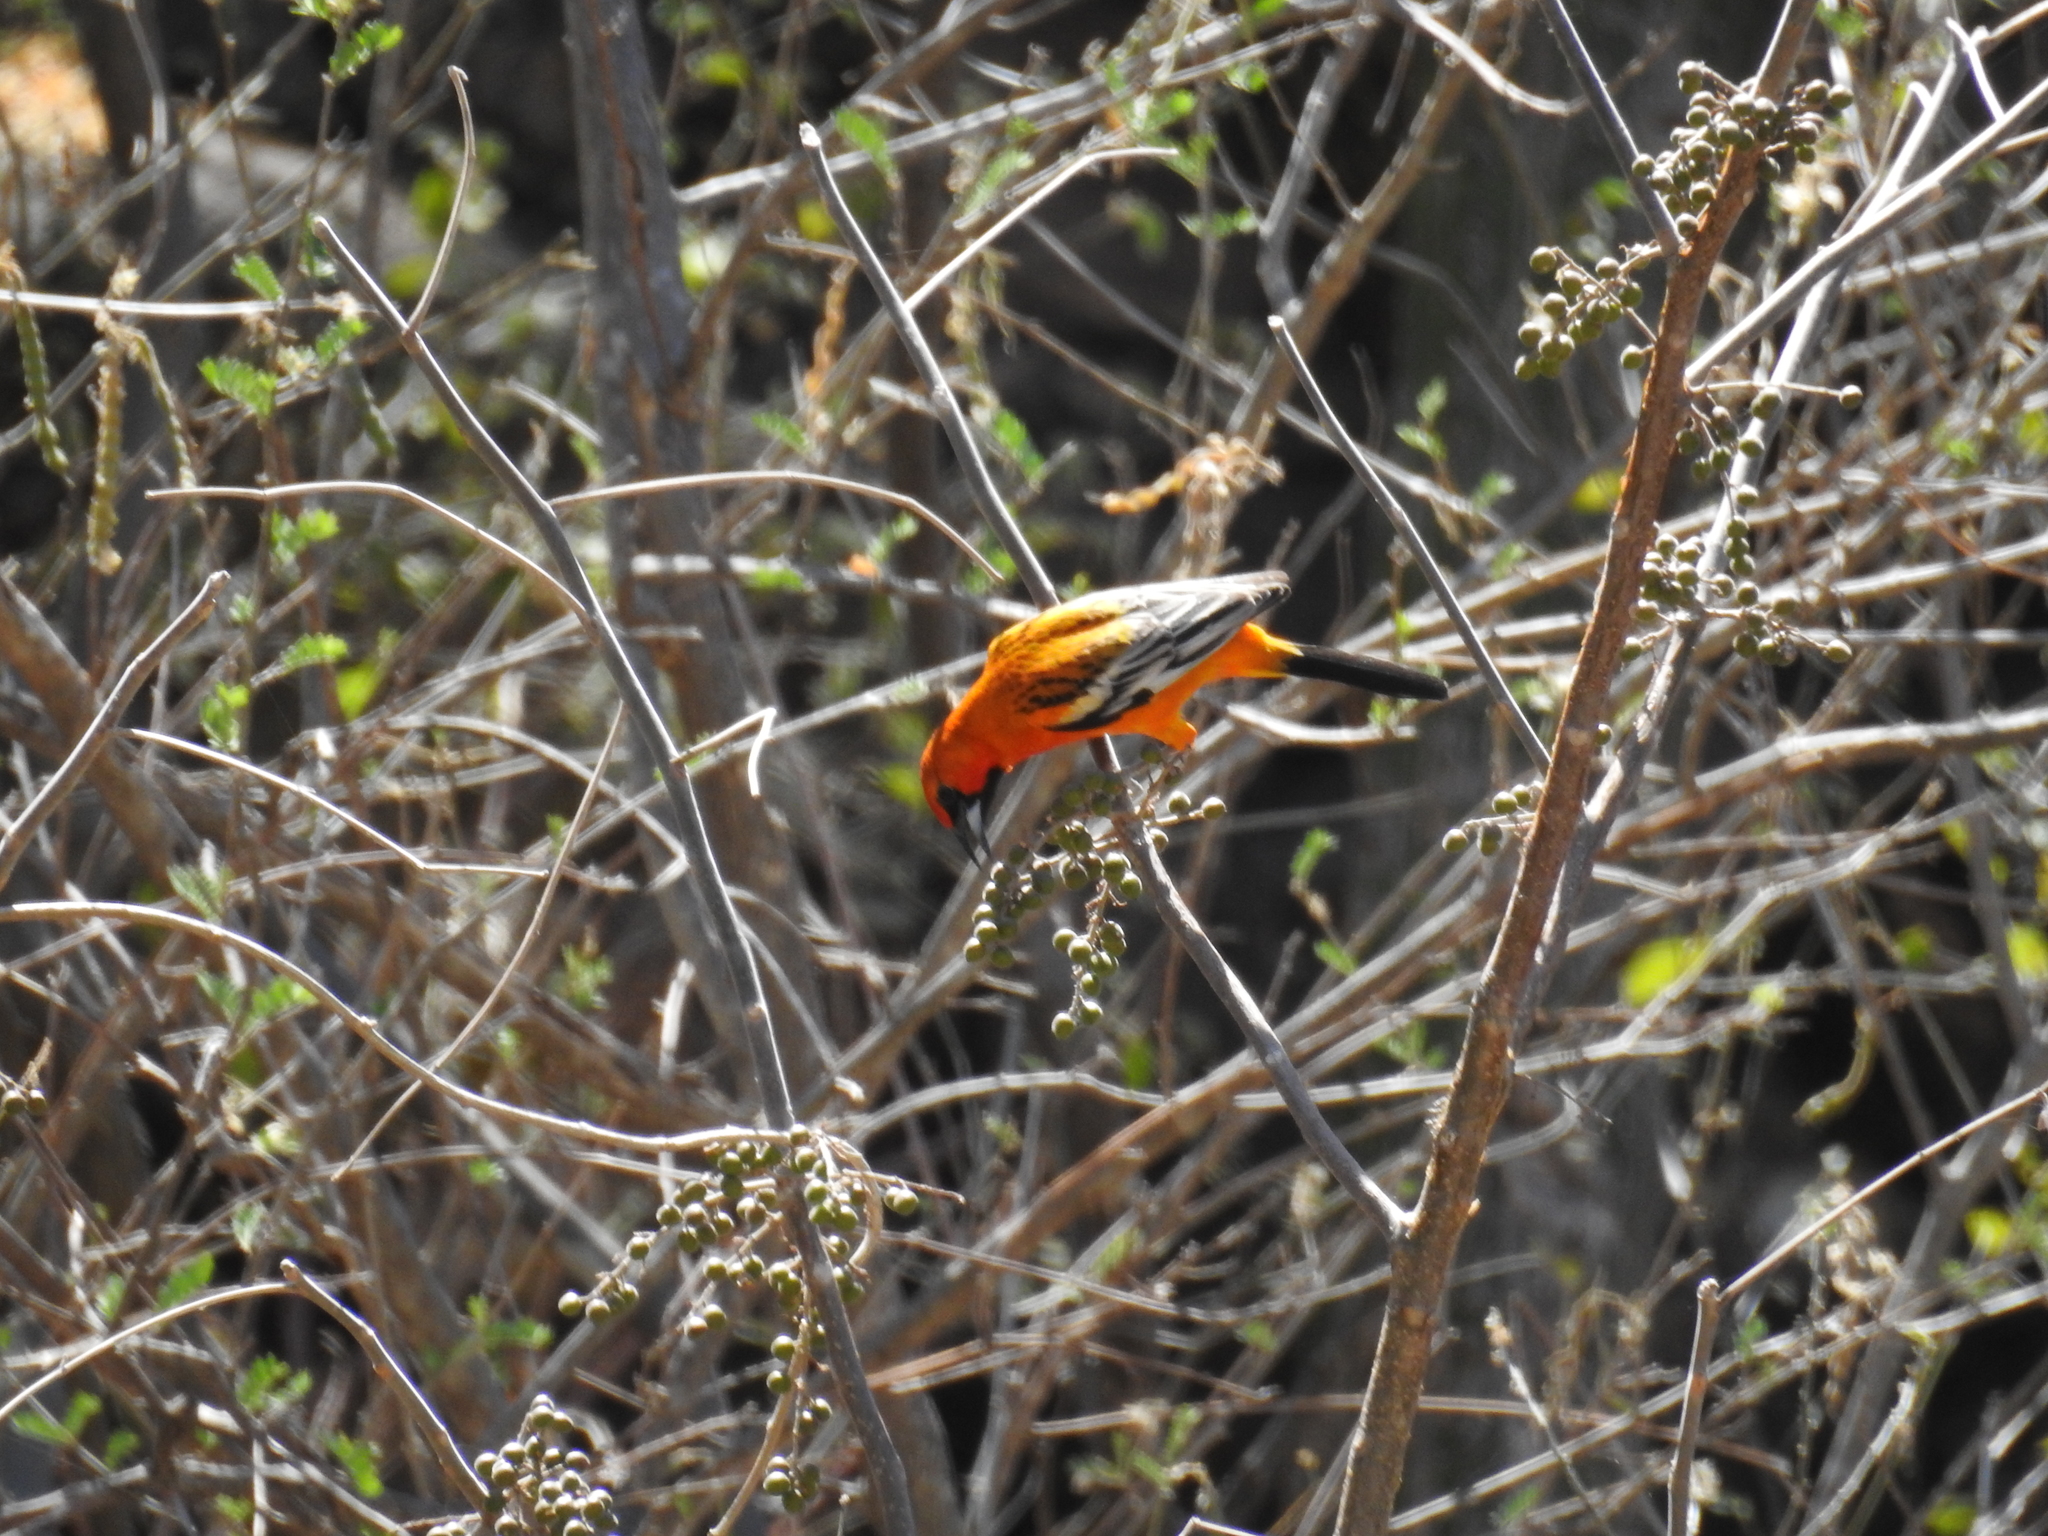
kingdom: Animalia
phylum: Chordata
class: Aves
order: Passeriformes
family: Icteridae
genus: Icterus
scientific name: Icterus pustulatus
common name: Streak-backed oriole
